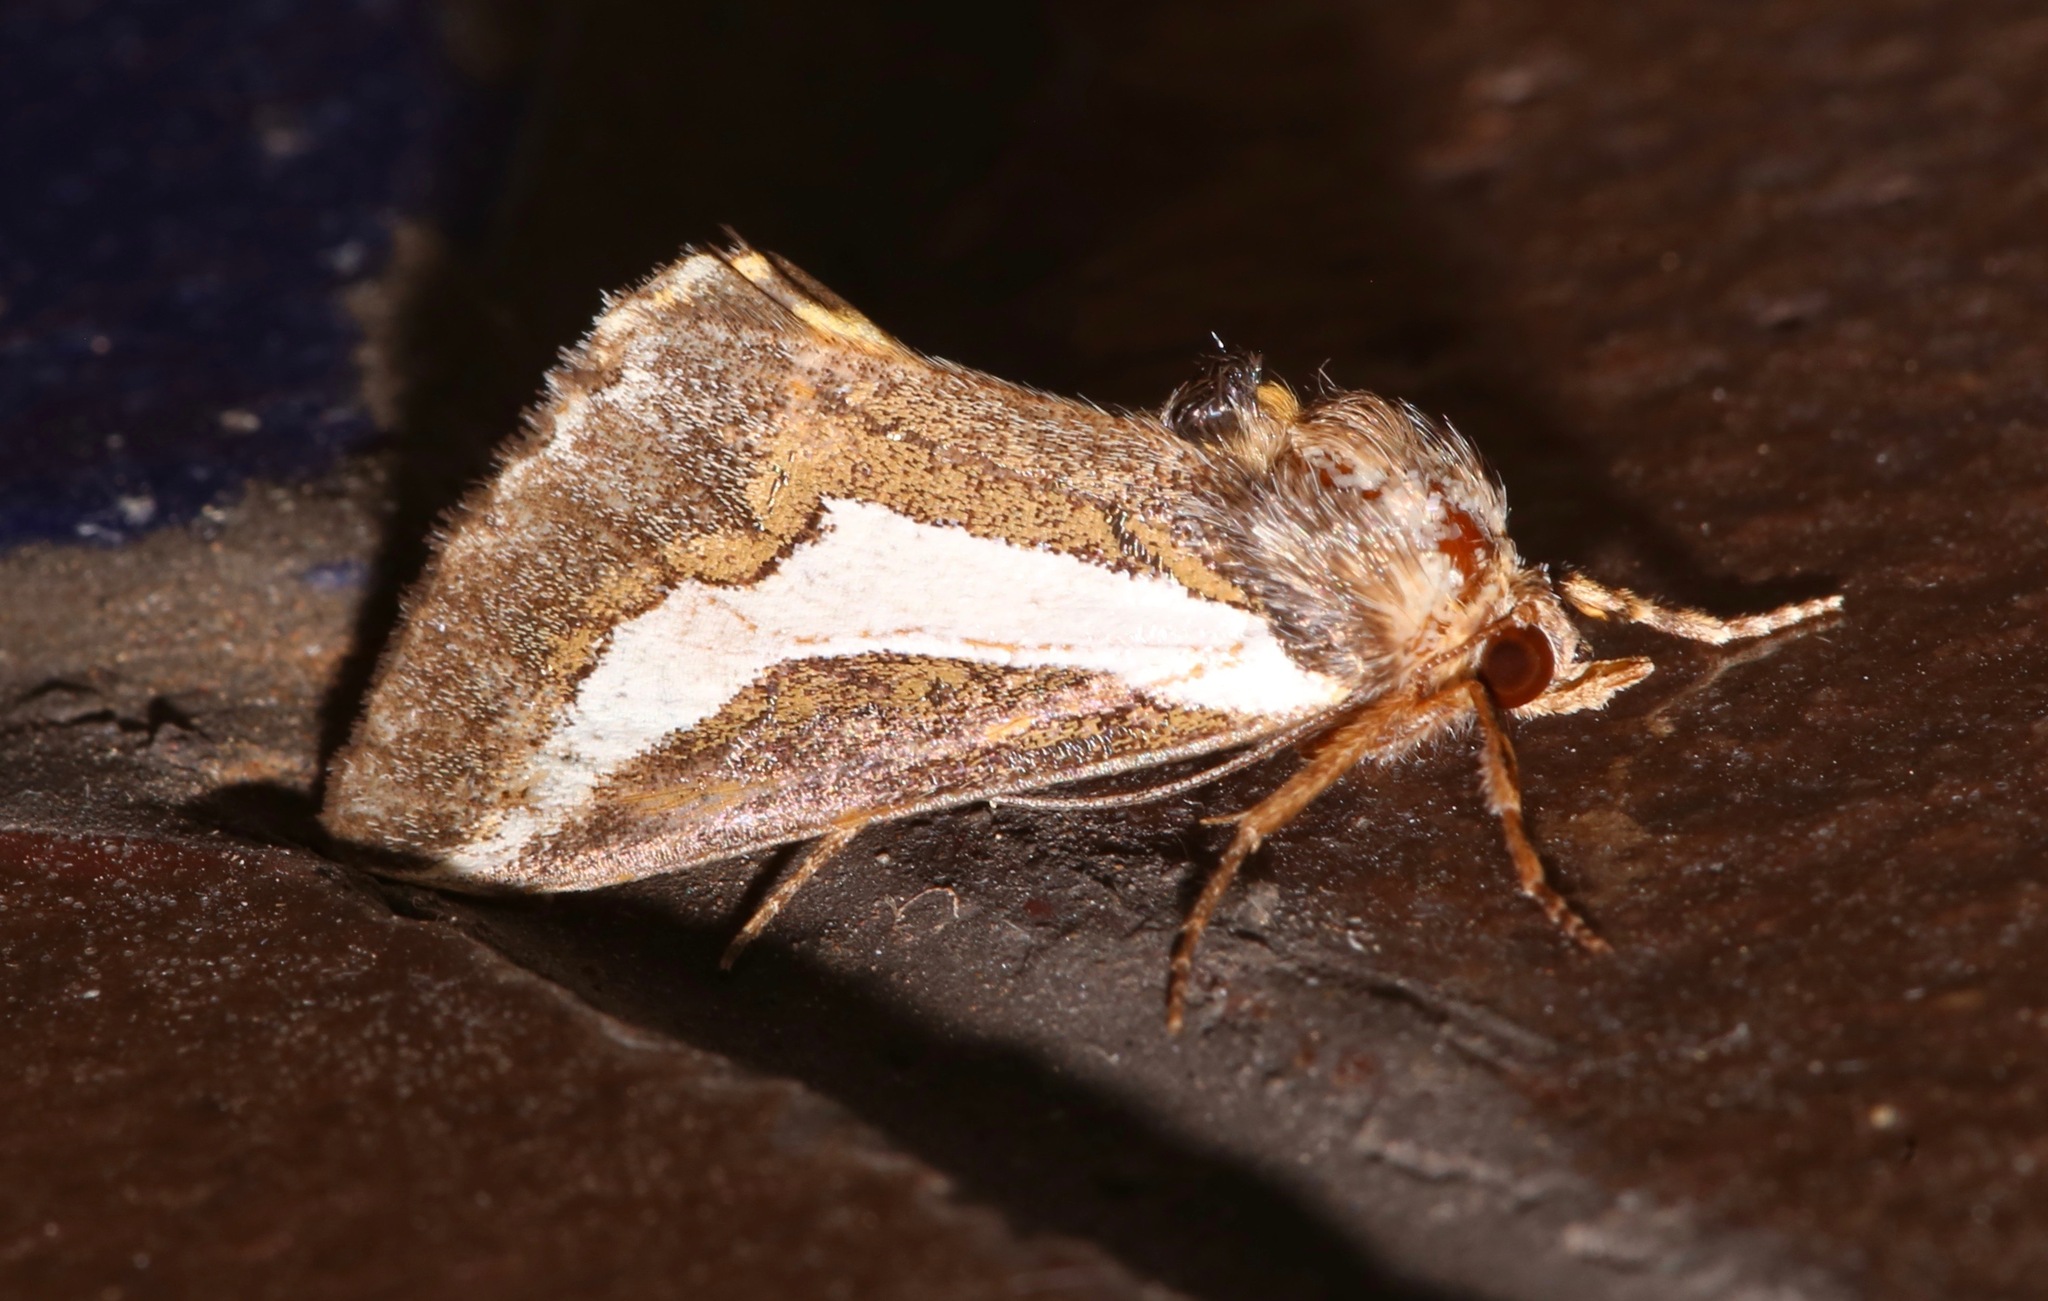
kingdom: Animalia
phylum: Arthropoda
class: Insecta
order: Lepidoptera
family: Noctuidae
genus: Euscirrhopterus
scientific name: Euscirrhopterus cosyra
